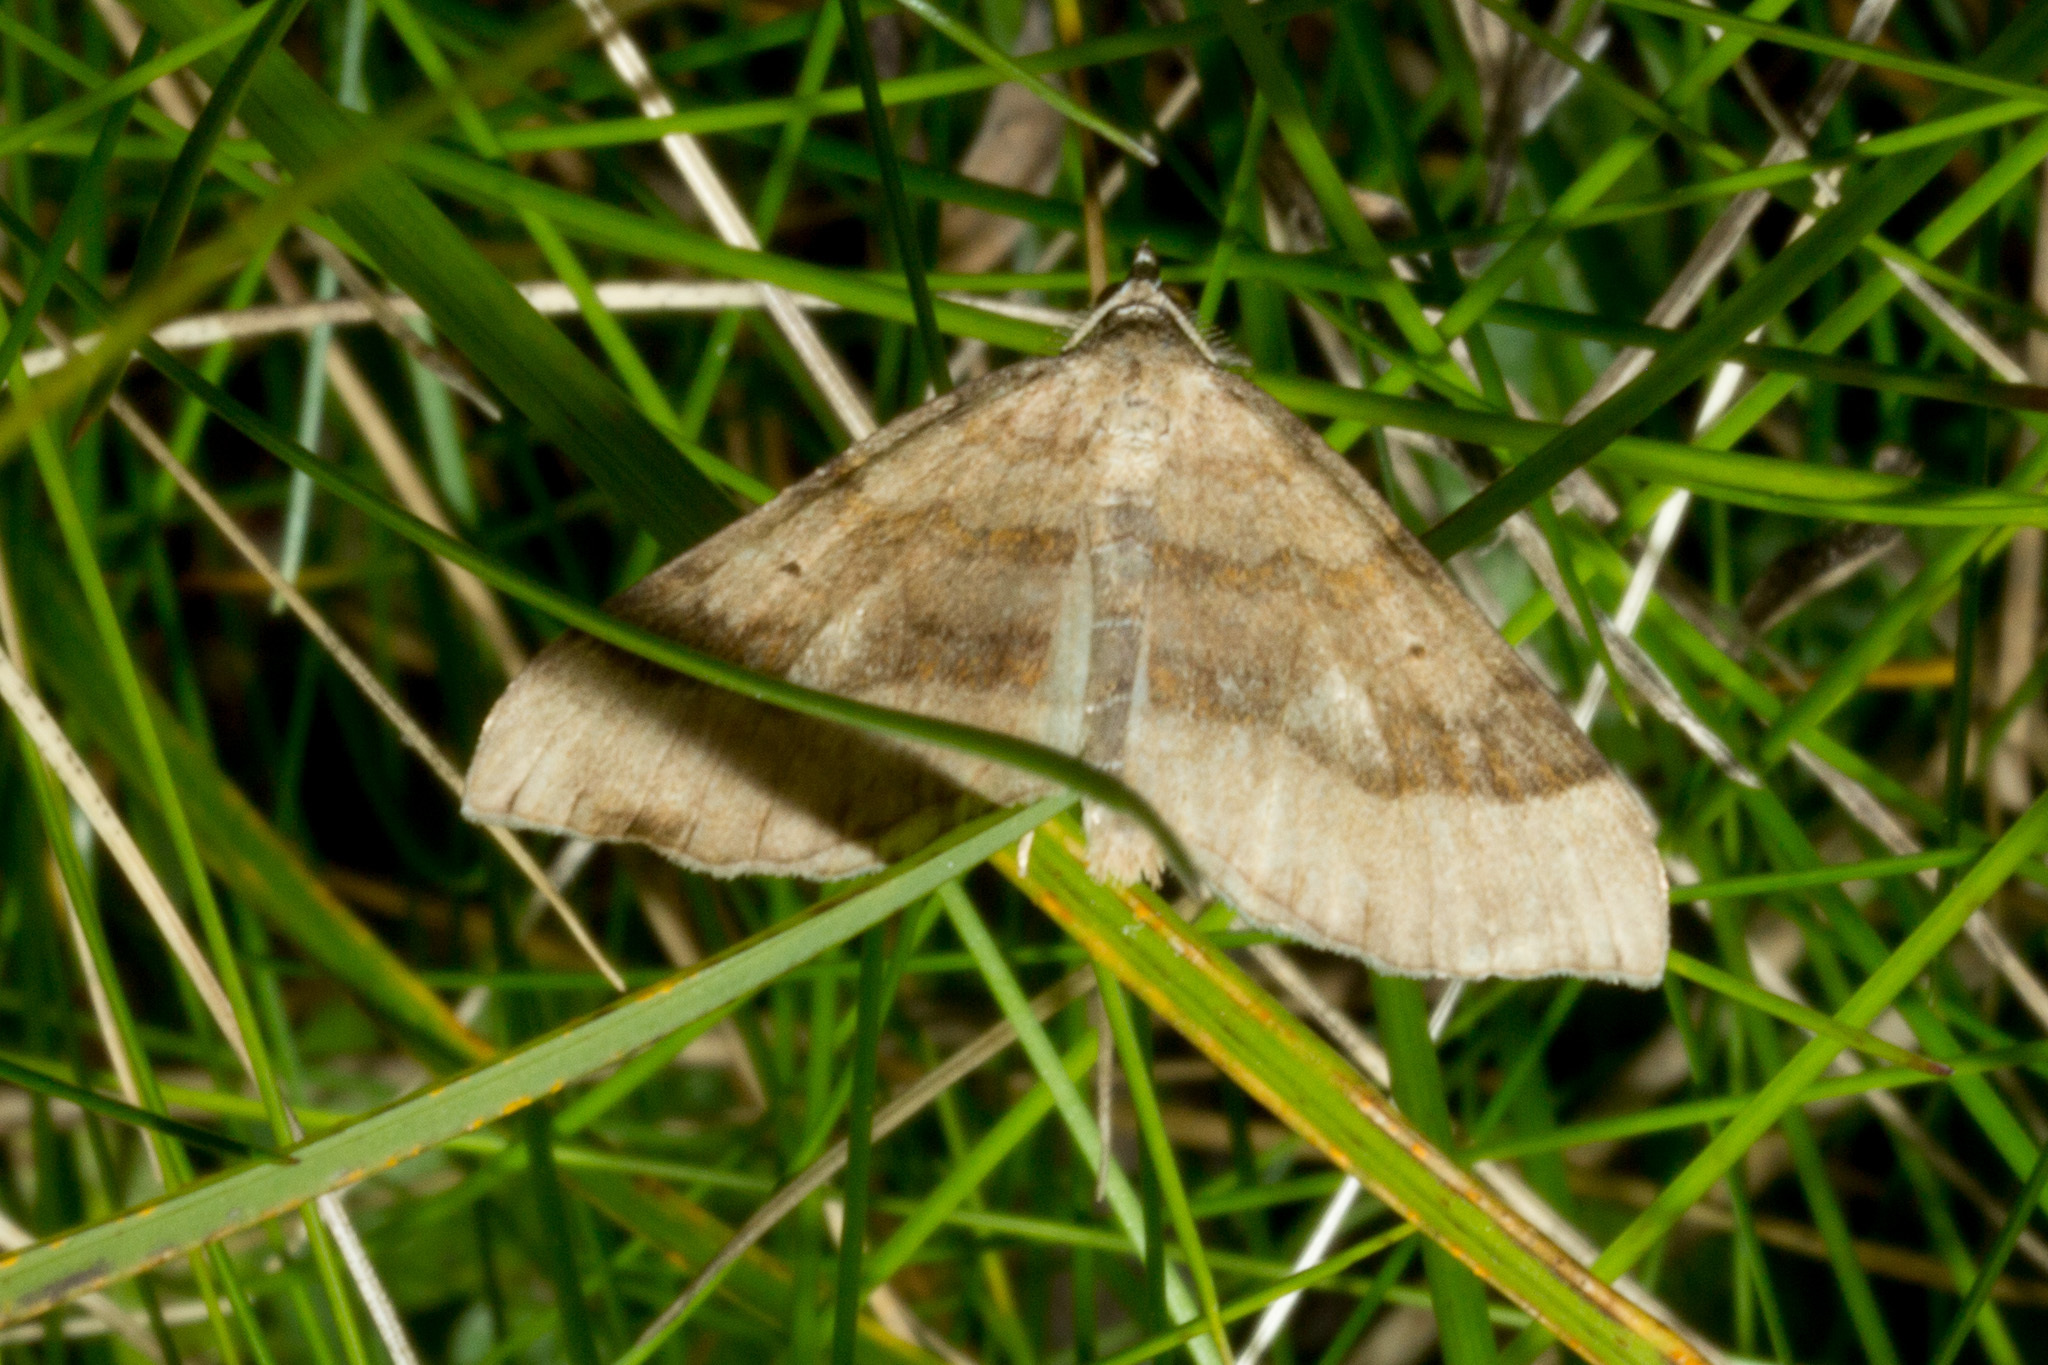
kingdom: Animalia
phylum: Arthropoda
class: Insecta
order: Lepidoptera
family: Geometridae
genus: Scotopteryx
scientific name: Scotopteryx chenopodiata
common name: Shaded broad-bar
